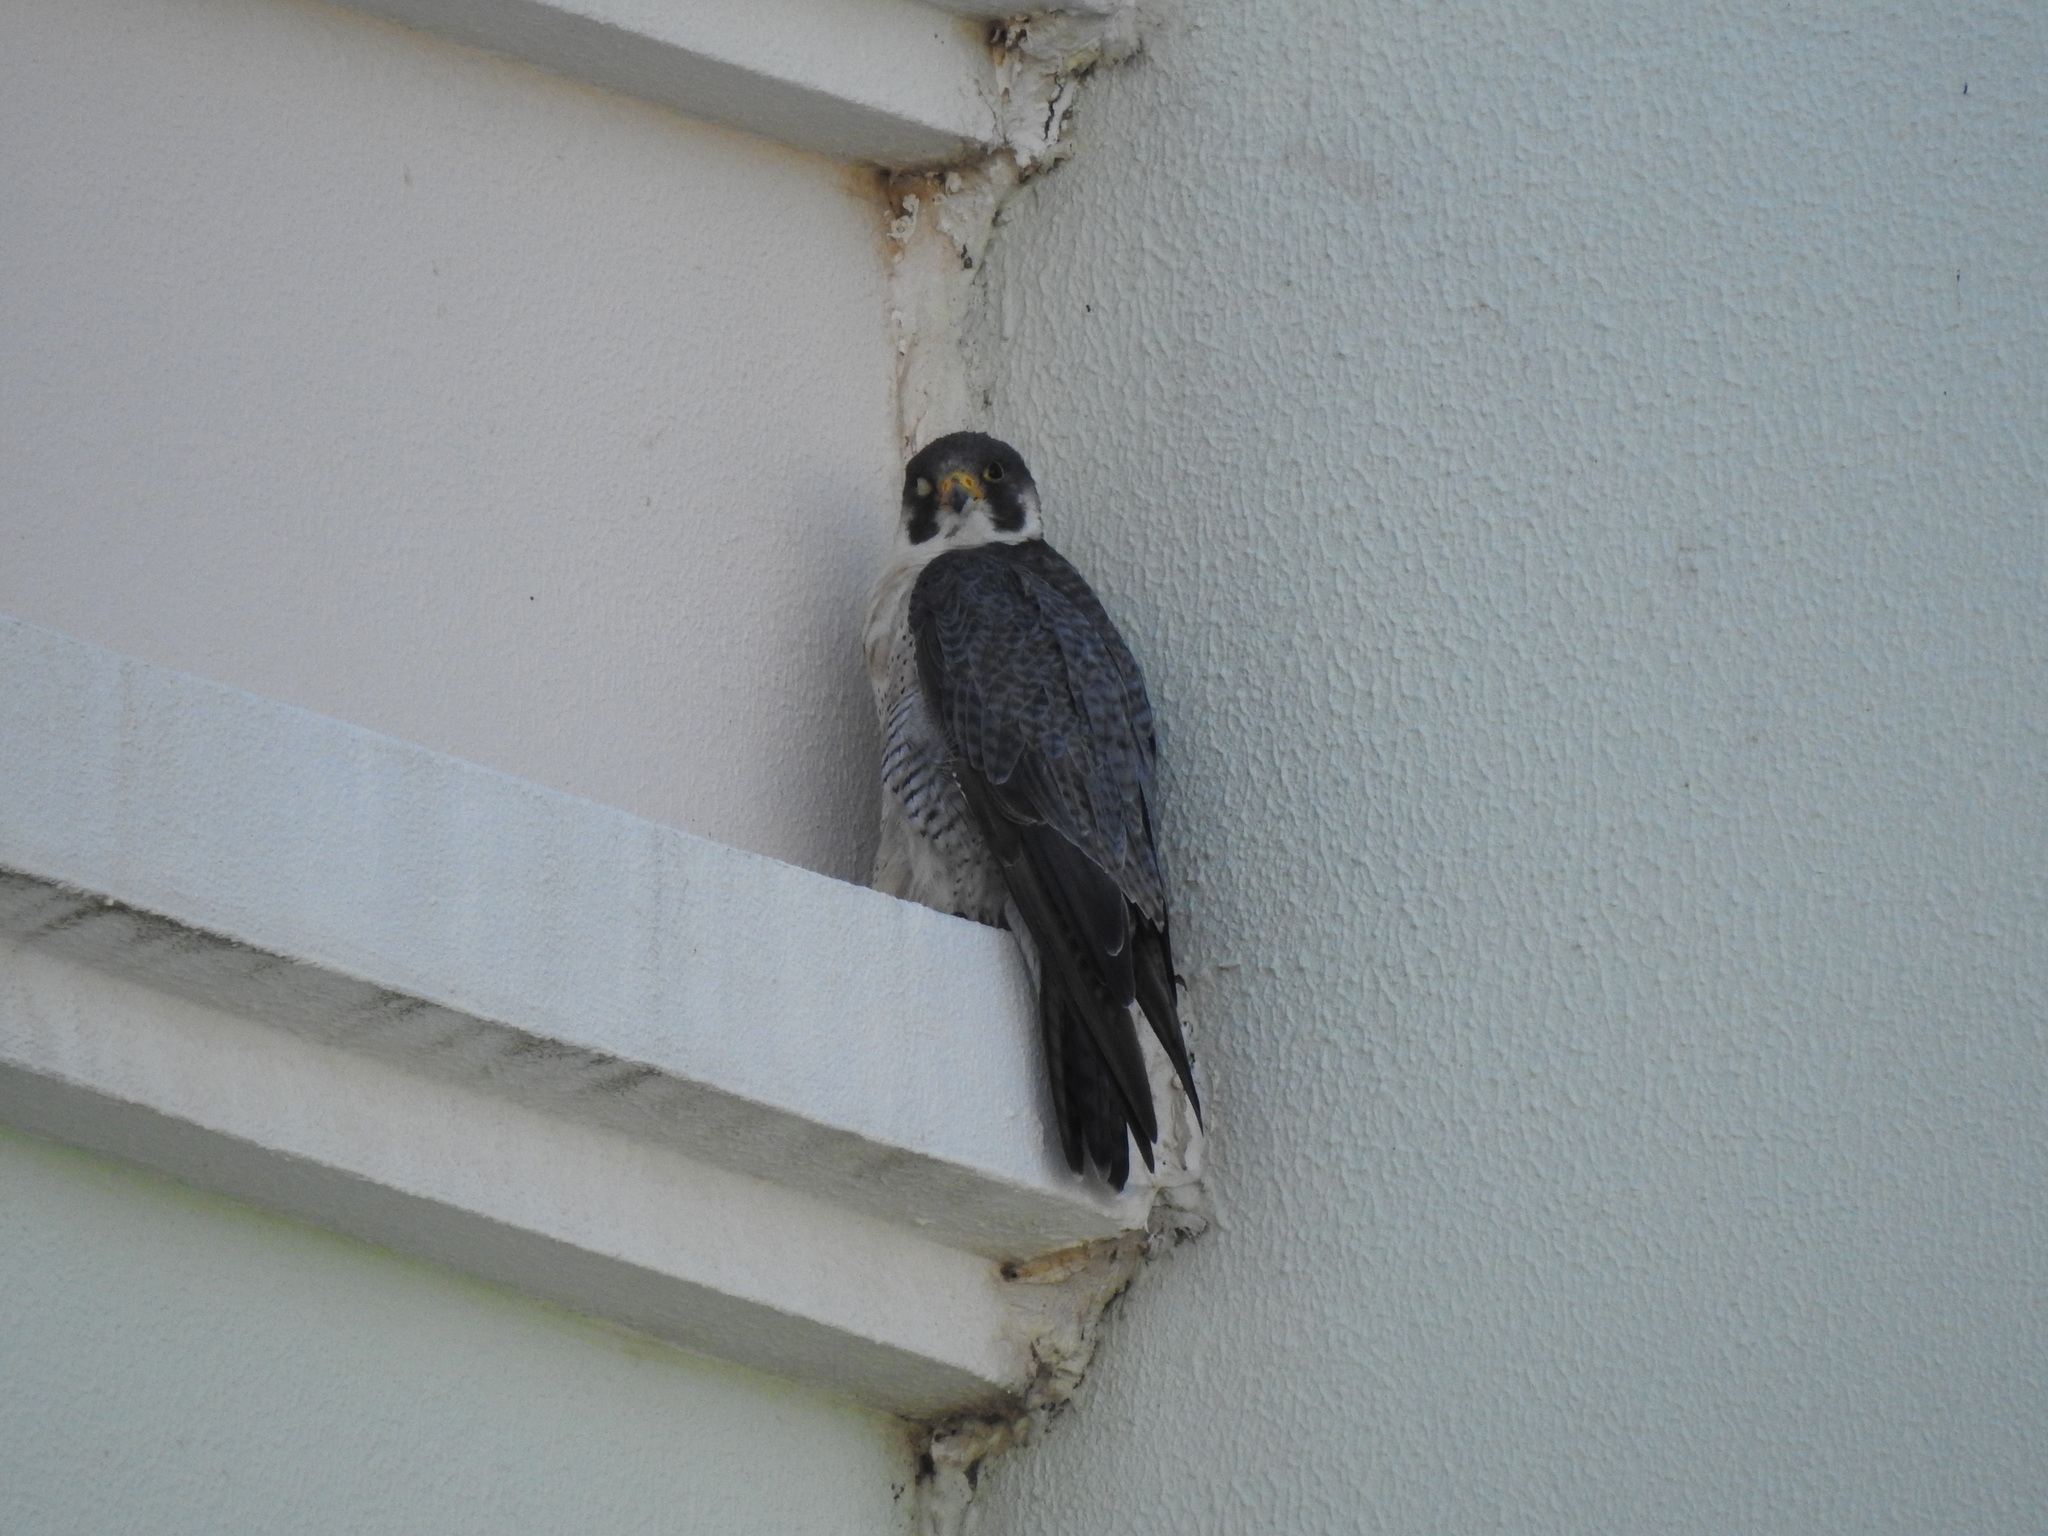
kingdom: Animalia
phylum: Chordata
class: Aves
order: Falconiformes
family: Falconidae
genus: Falco
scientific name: Falco peregrinus
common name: Peregrine falcon
